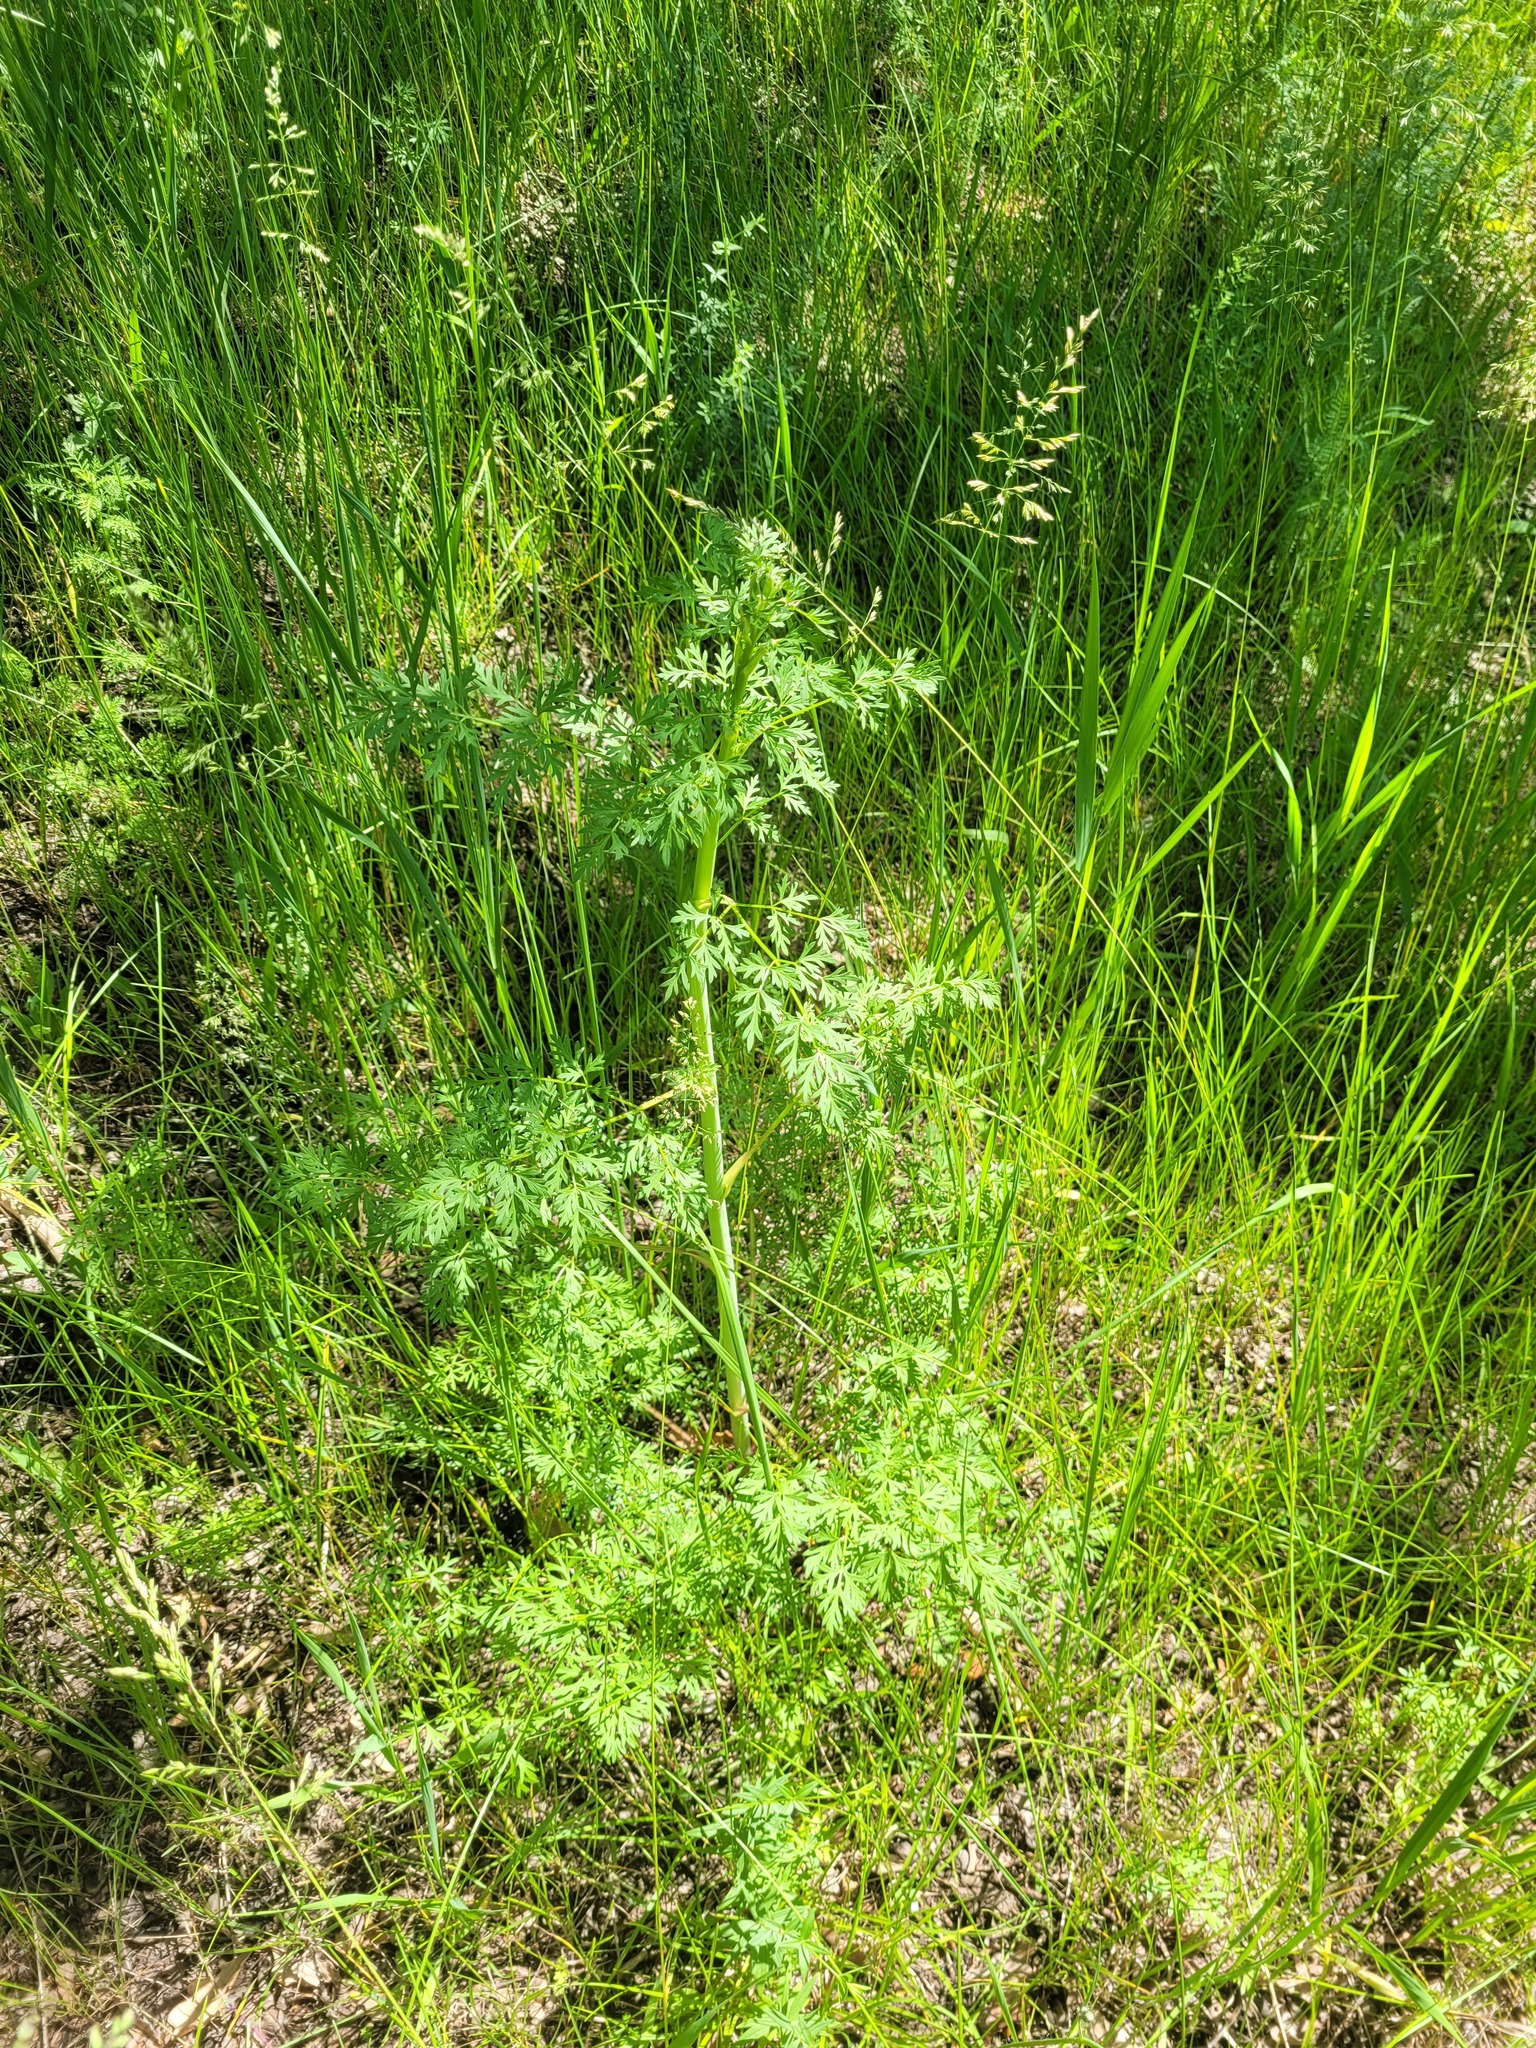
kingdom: Plantae
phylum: Tracheophyta
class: Magnoliopsida
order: Apiales
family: Apiaceae
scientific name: Apiaceae
